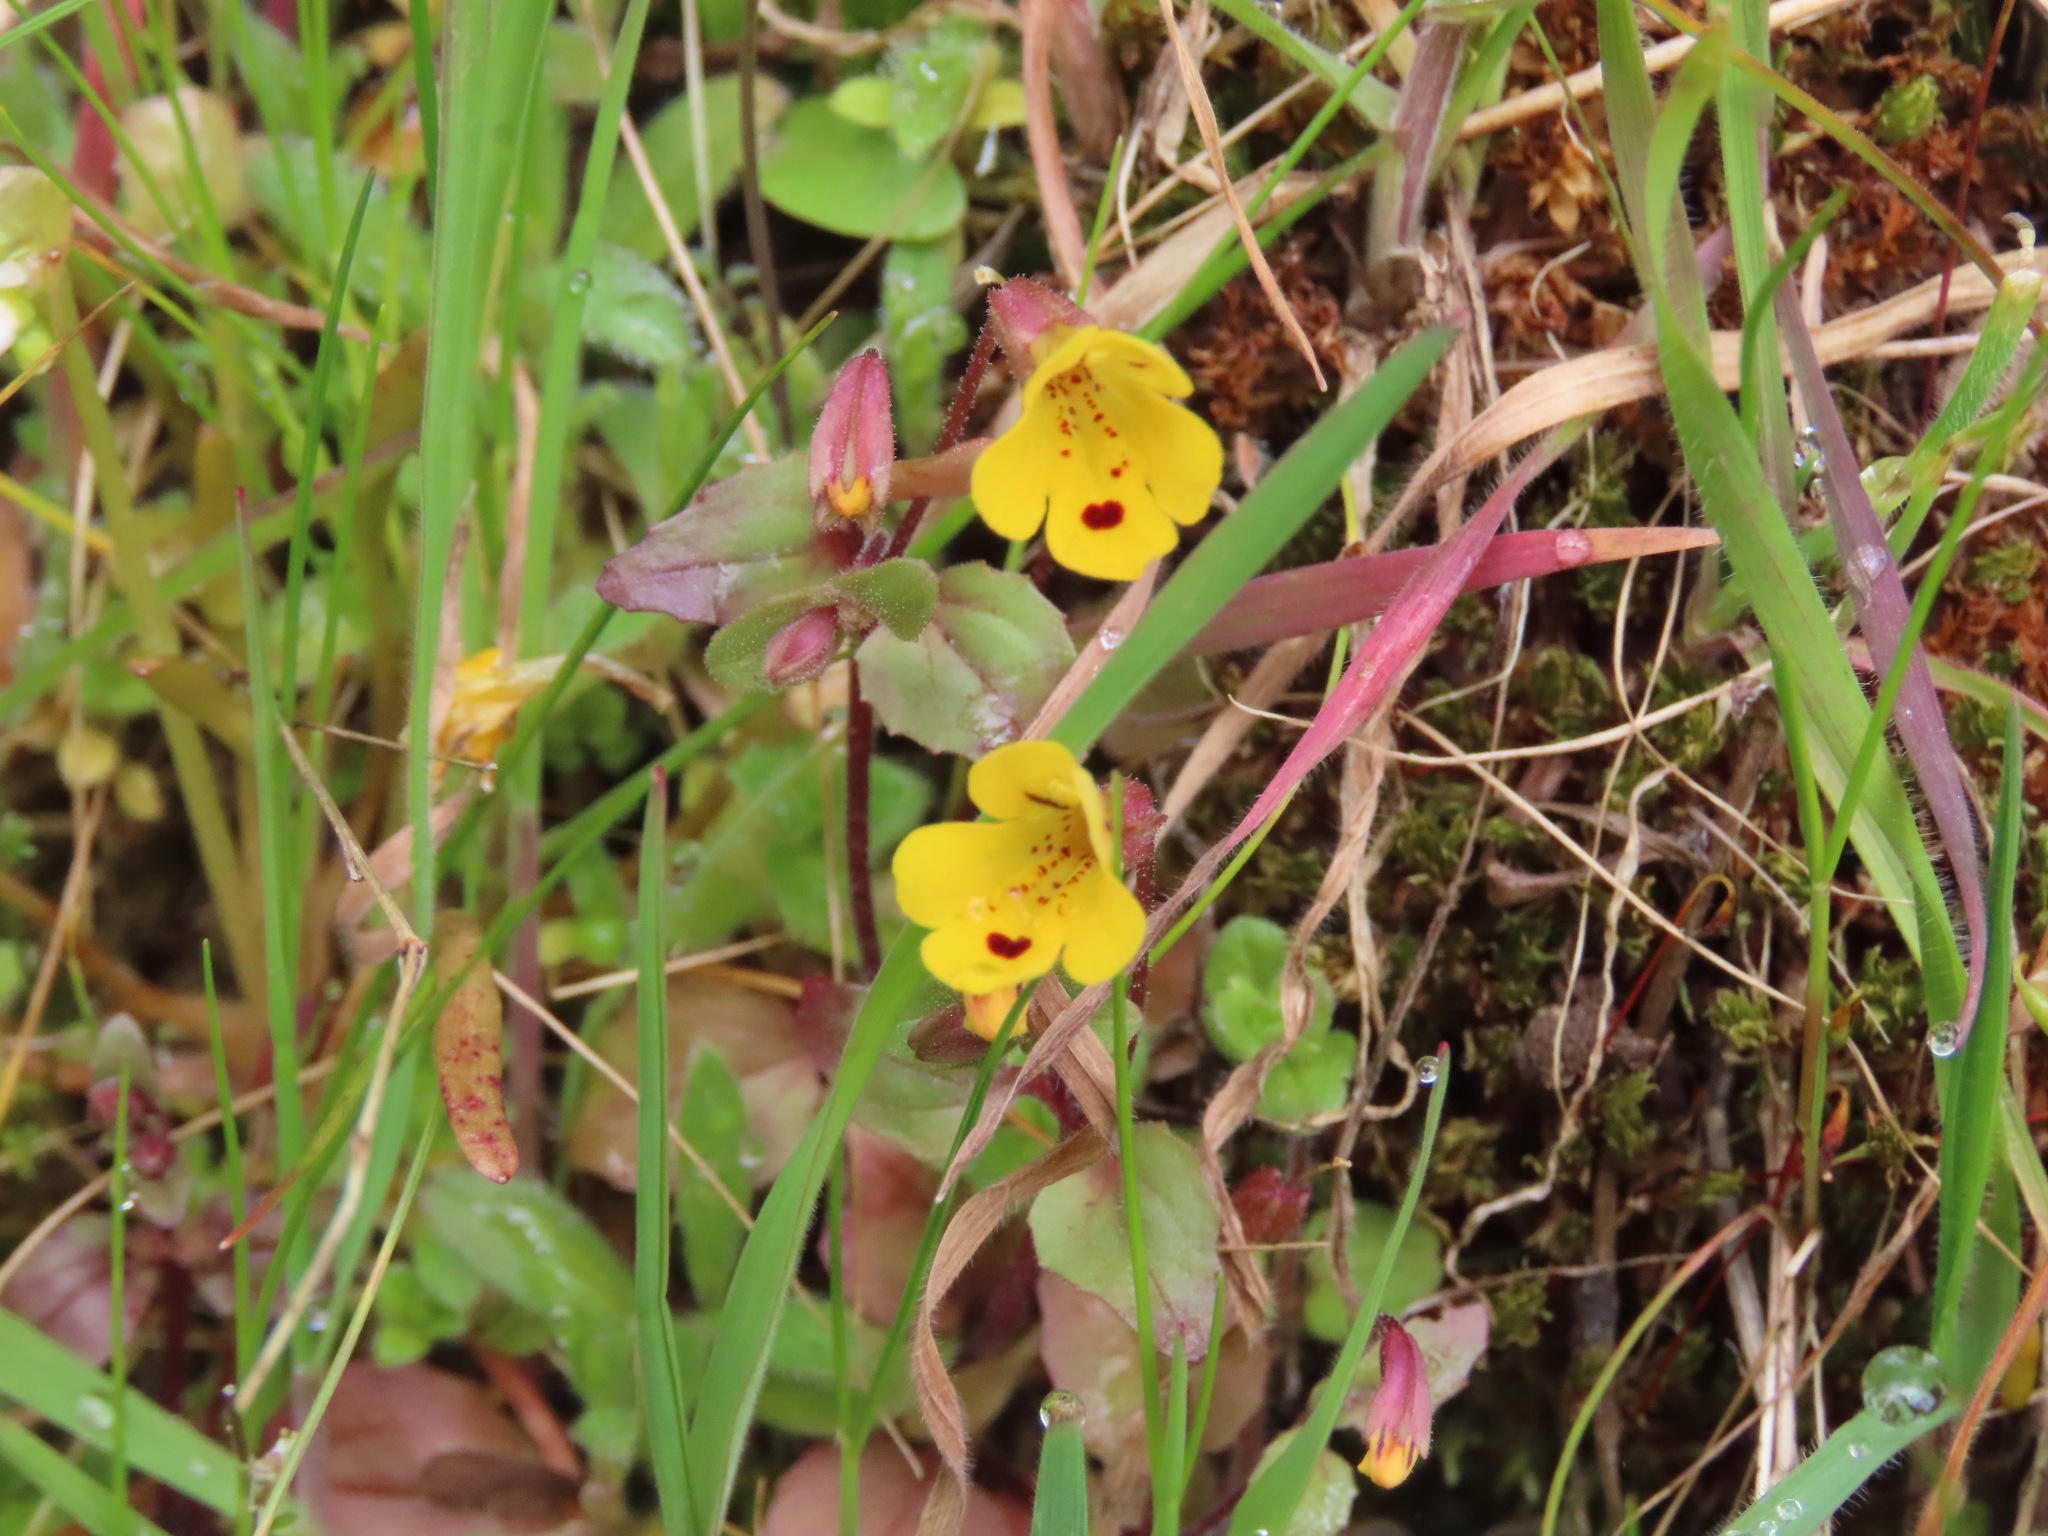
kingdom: Plantae
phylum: Tracheophyta
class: Magnoliopsida
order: Lamiales
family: Phrymaceae
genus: Erythranthe
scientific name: Erythranthe alsinoides
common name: Chickweed monkeyflower
